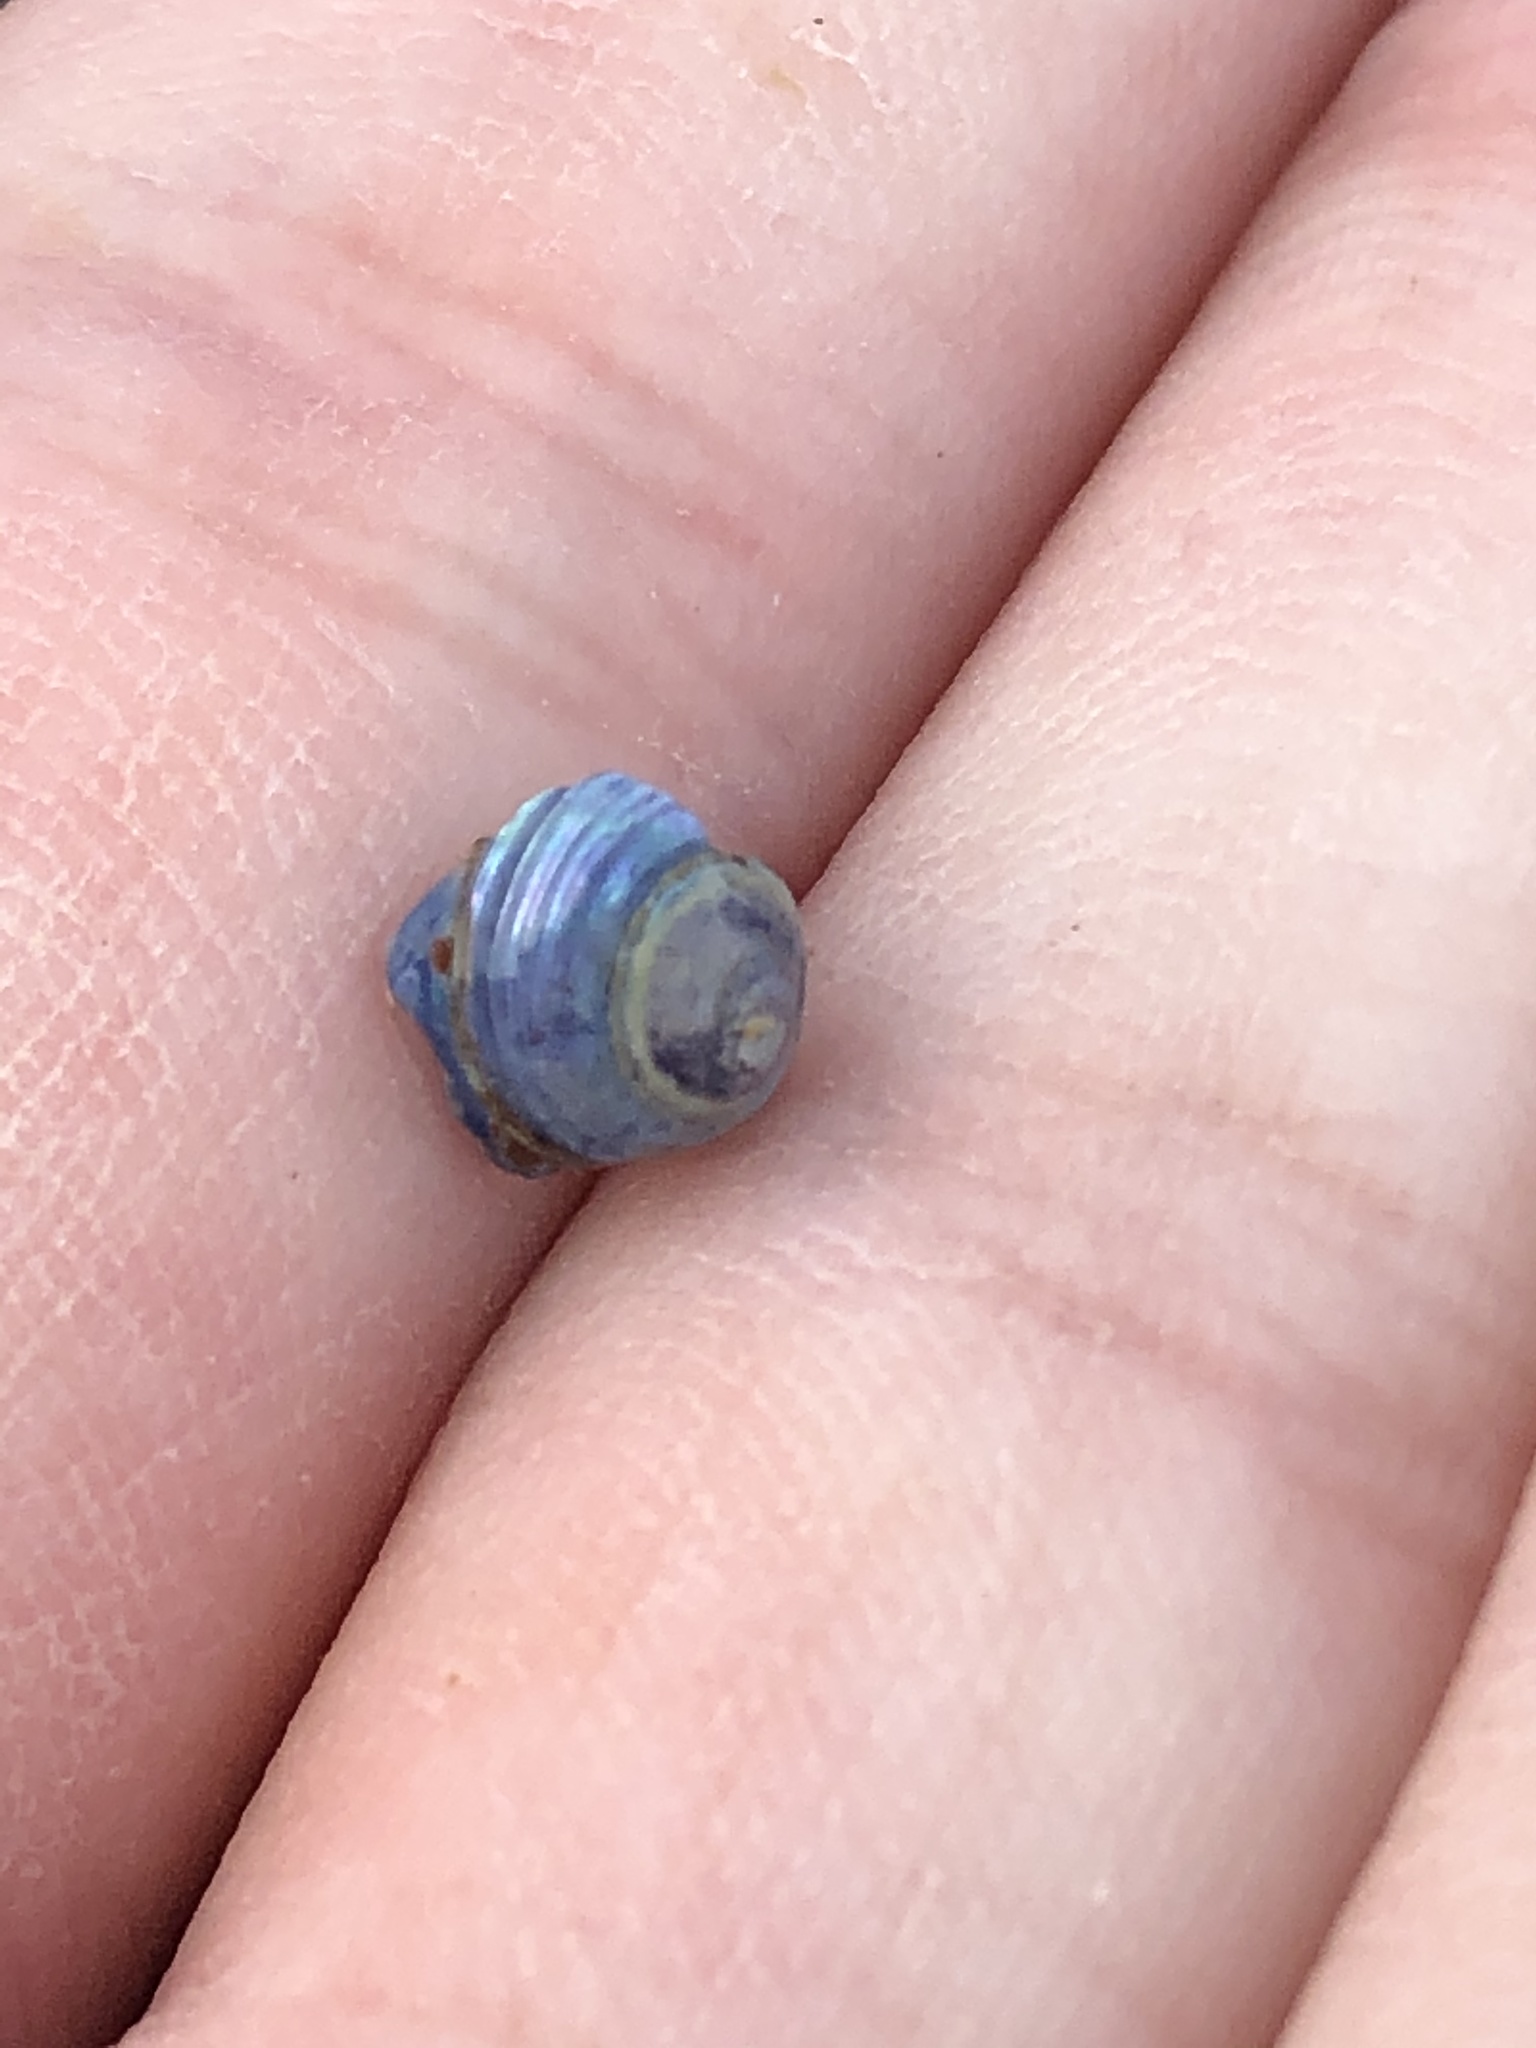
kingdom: Animalia
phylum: Mollusca
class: Gastropoda
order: Trochida
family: Calliostomatidae
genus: Calliostoma
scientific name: Calliostoma ligatum
